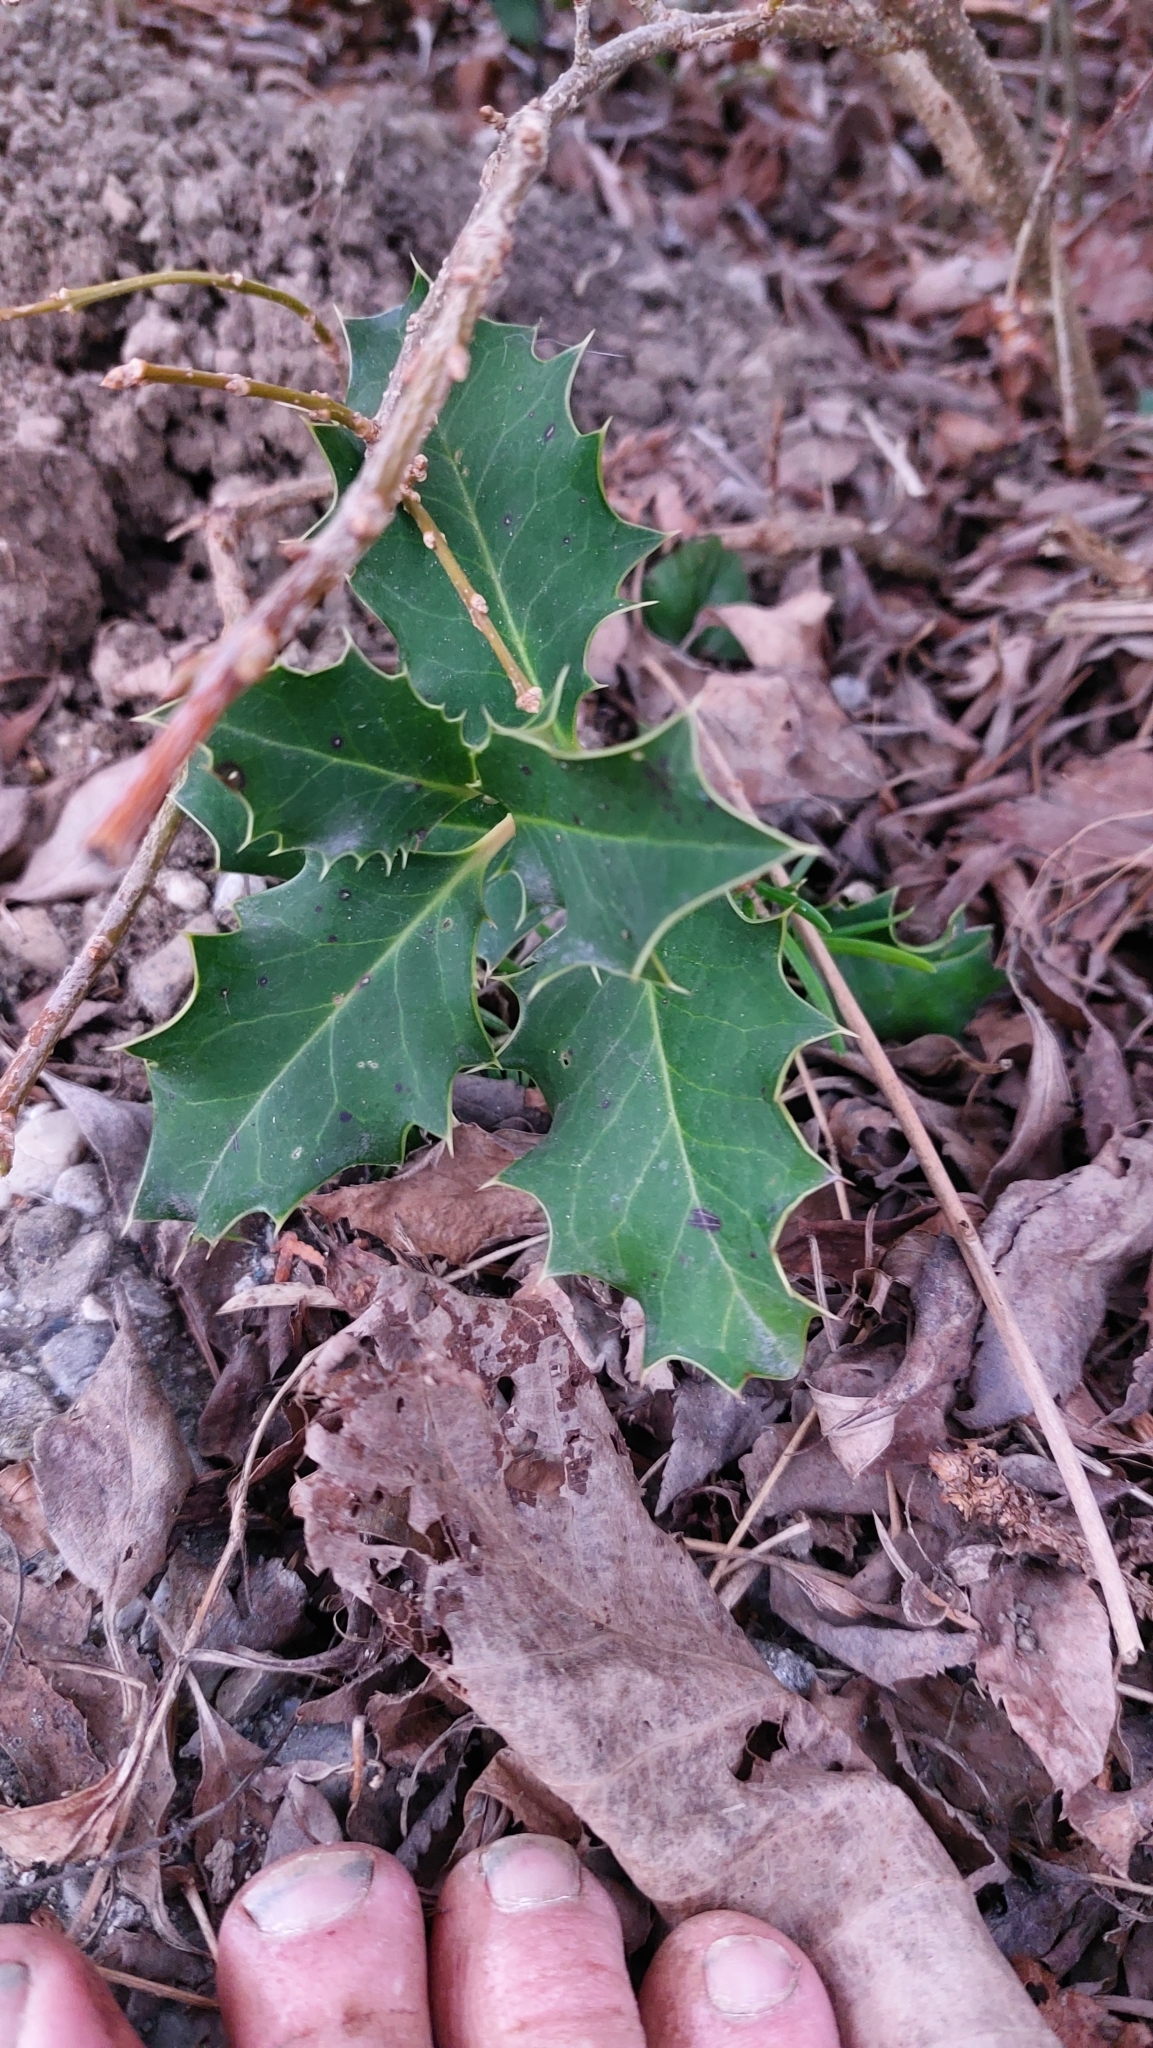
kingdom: Plantae
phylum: Tracheophyta
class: Magnoliopsida
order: Aquifoliales
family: Aquifoliaceae
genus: Ilex
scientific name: Ilex aquifolium
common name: English holly
